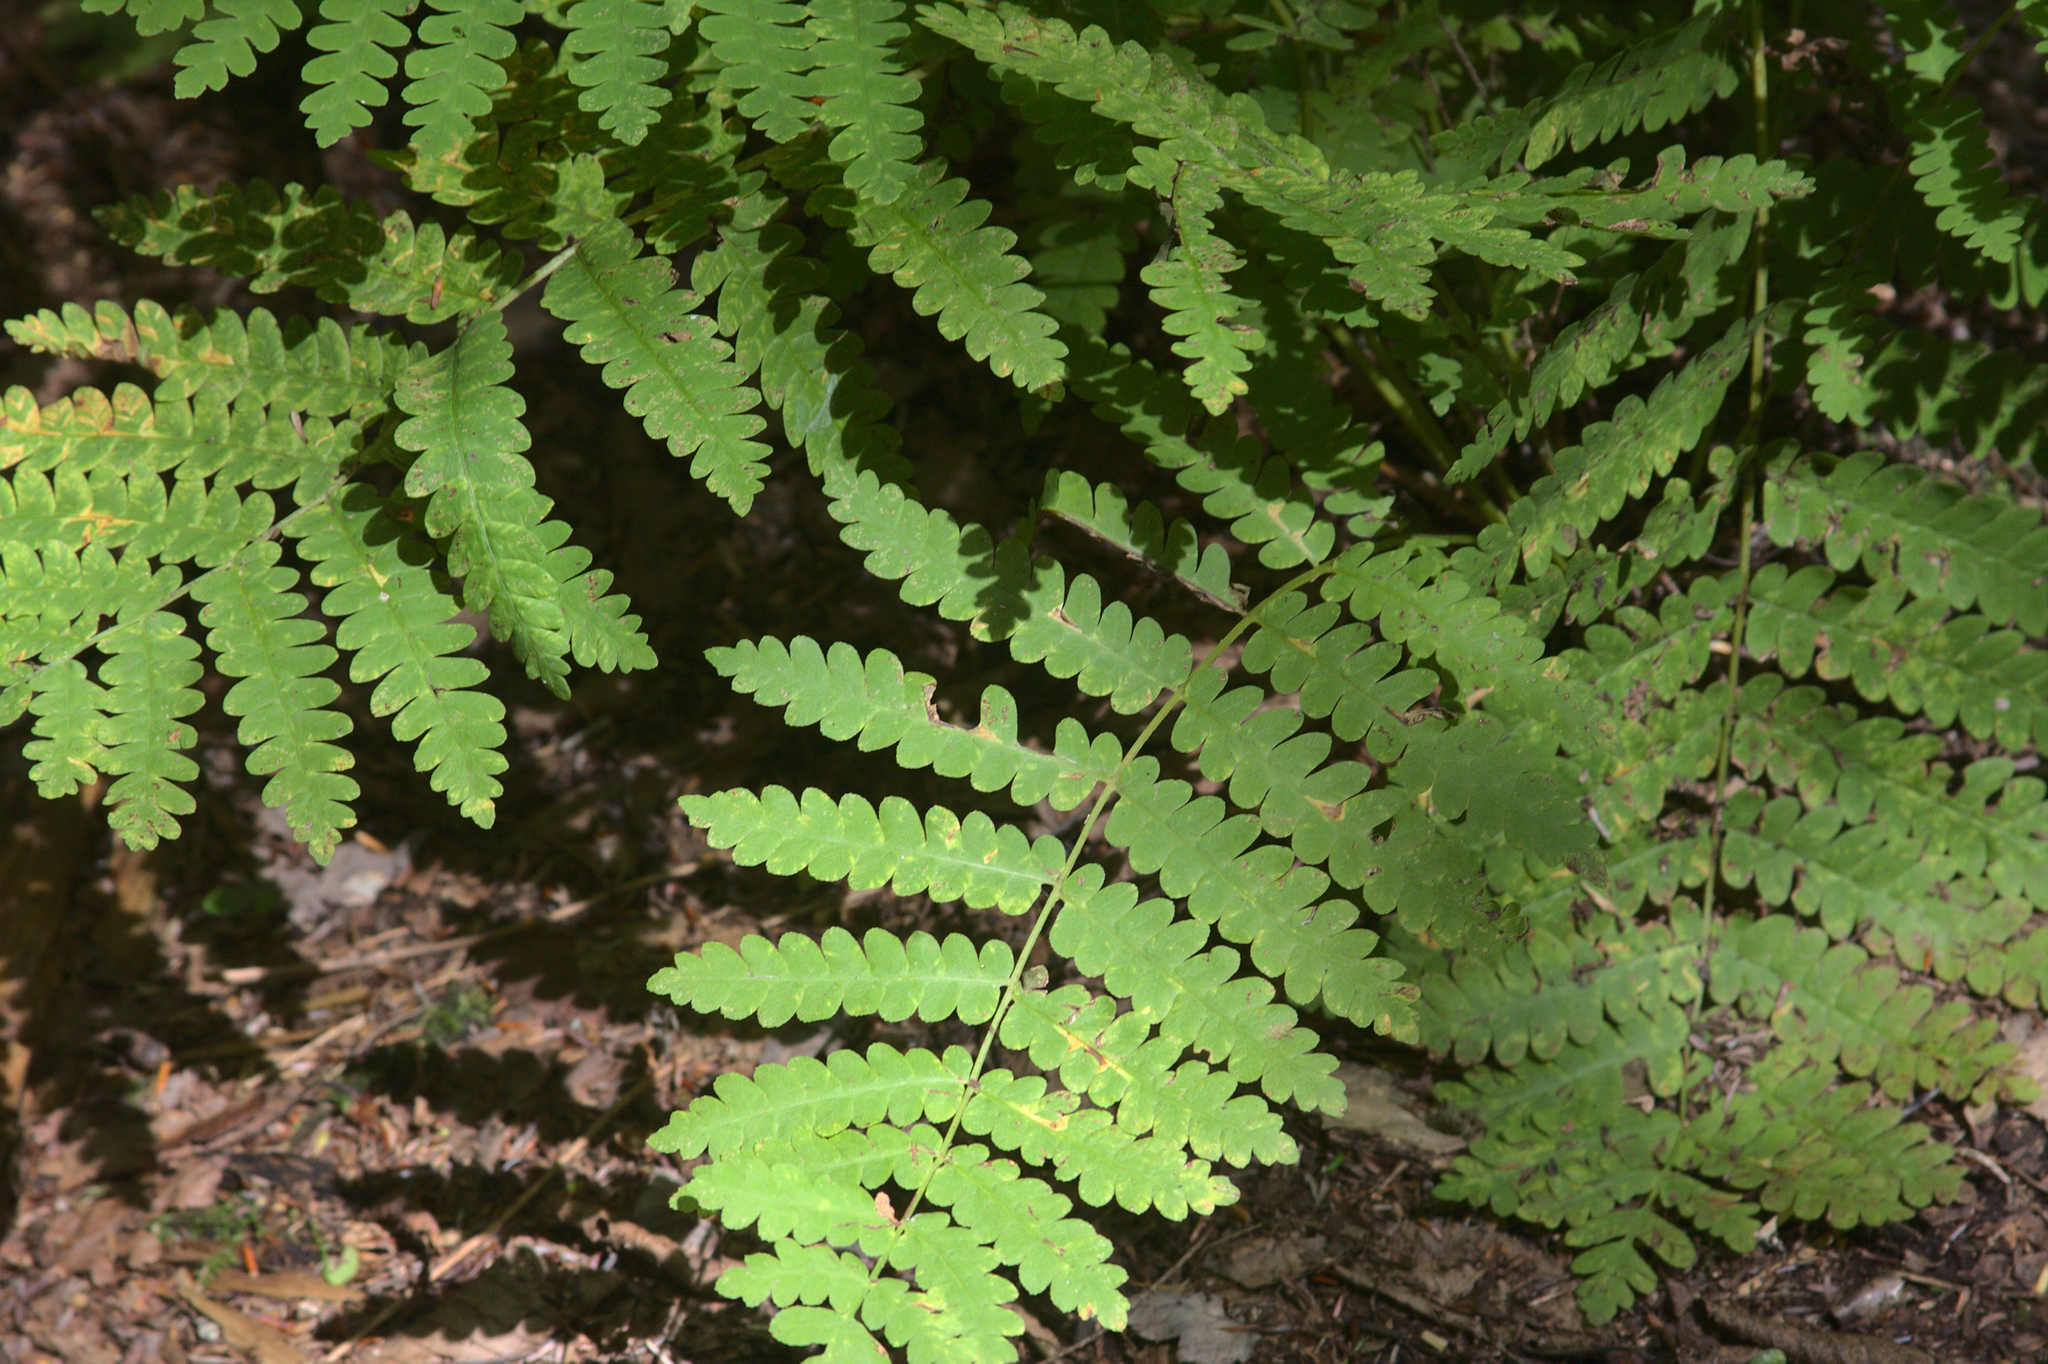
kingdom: Plantae
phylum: Tracheophyta
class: Polypodiopsida
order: Osmundales
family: Osmundaceae
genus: Claytosmunda
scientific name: Claytosmunda claytoniana
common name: Clayton's fern
